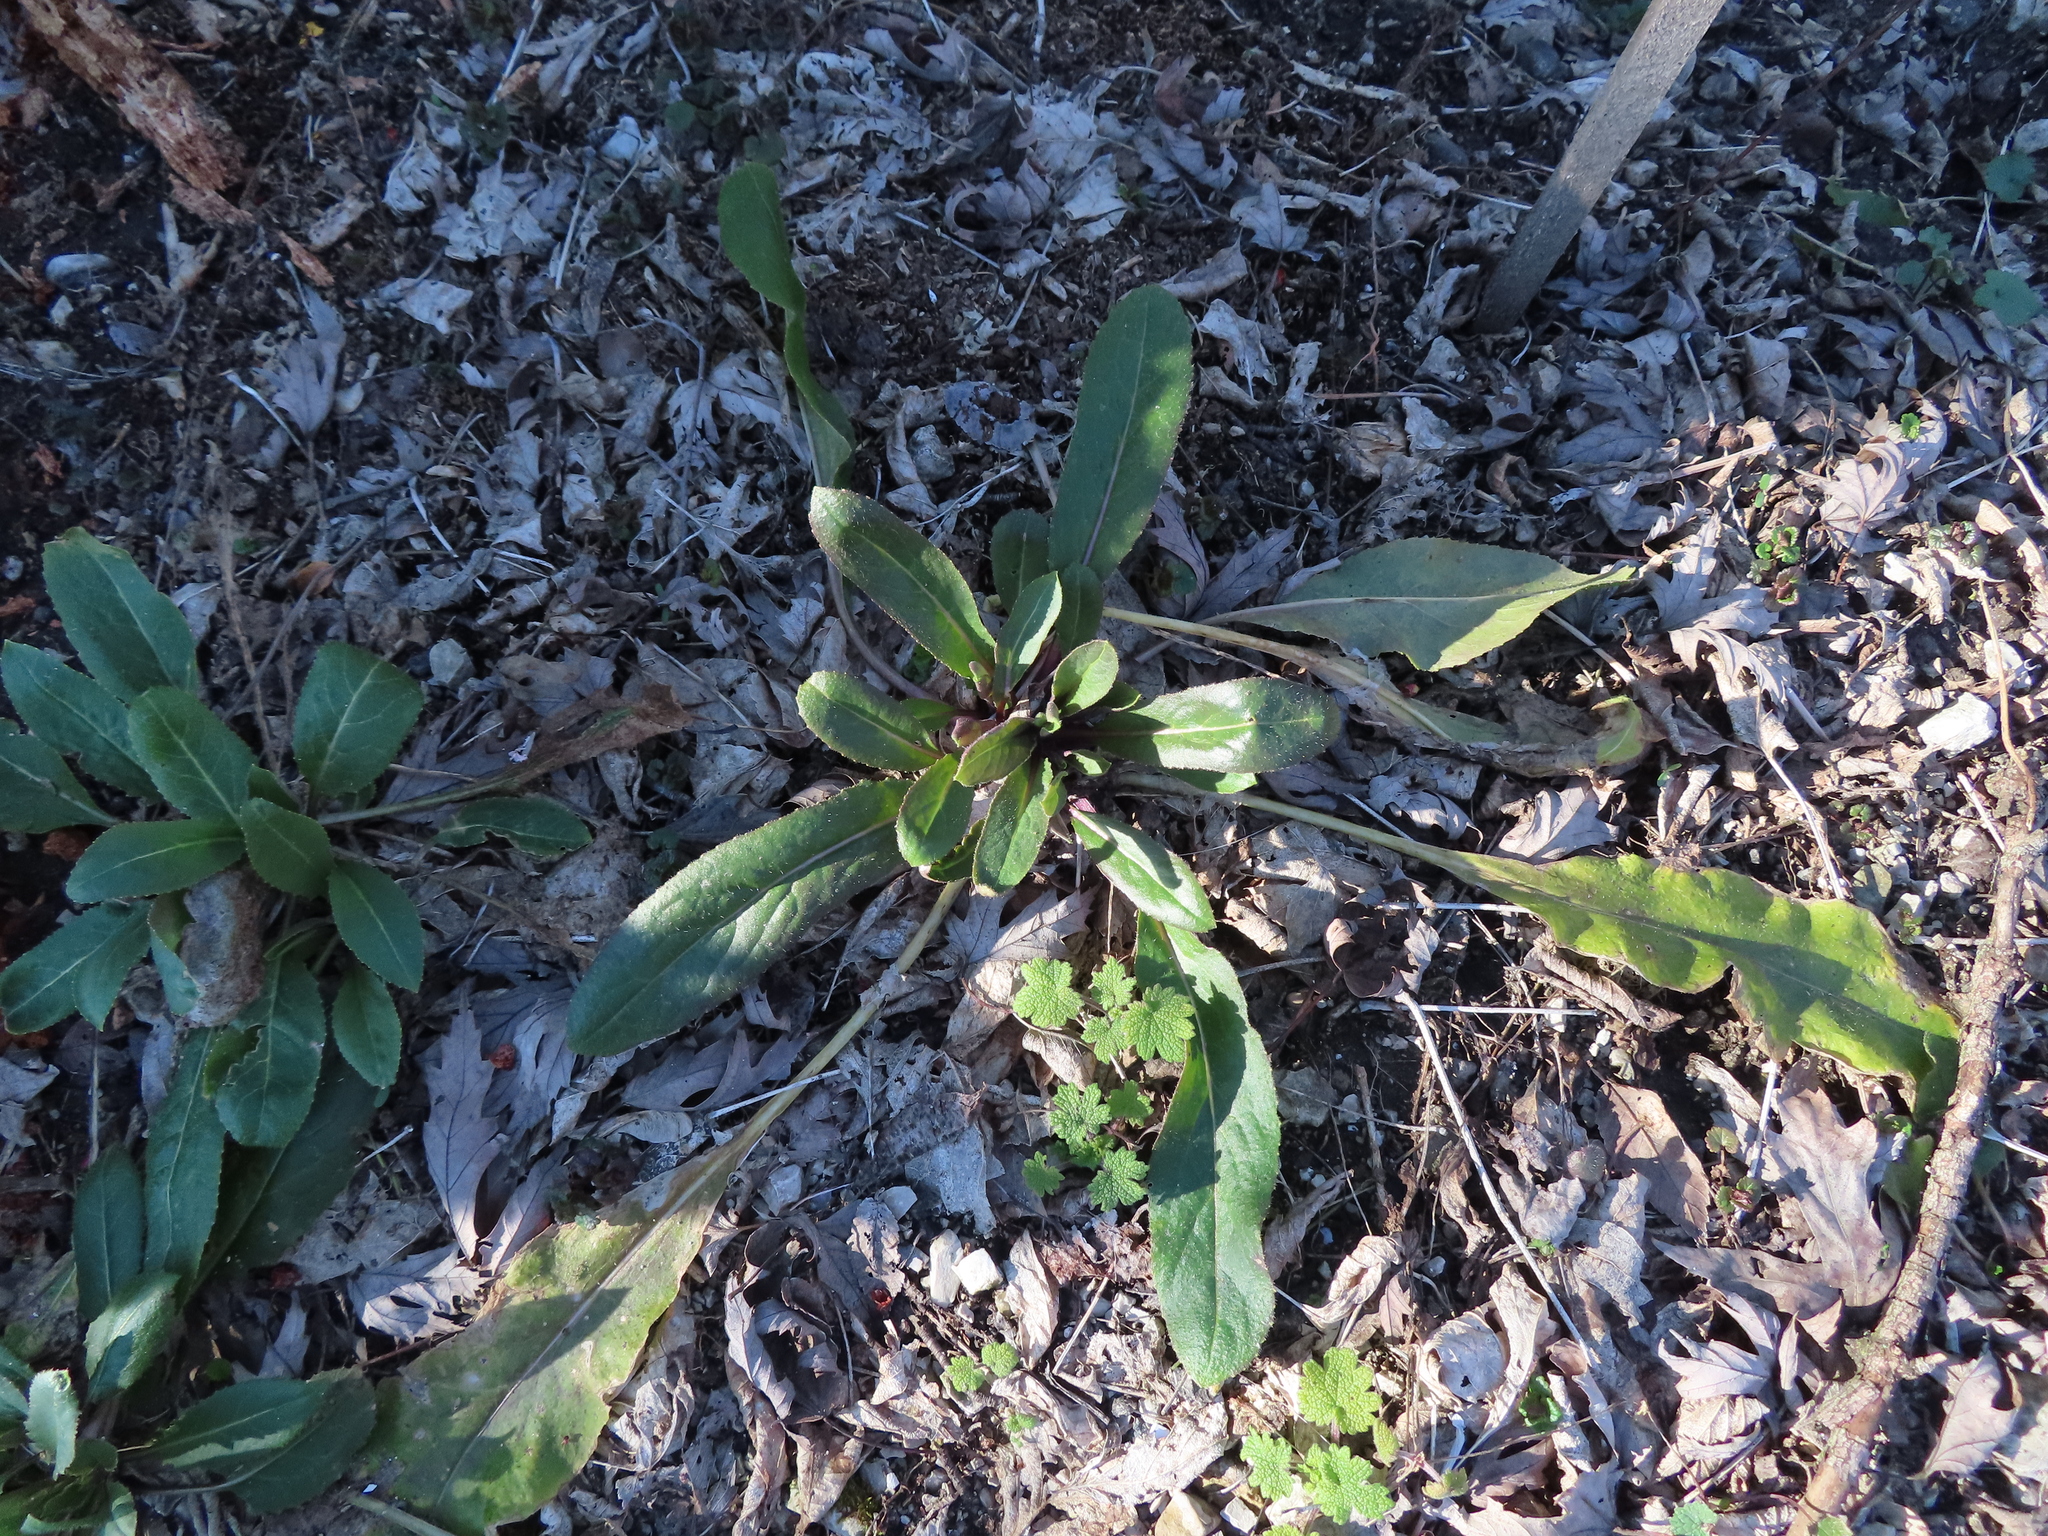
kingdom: Plantae
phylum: Tracheophyta
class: Magnoliopsida
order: Brassicales
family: Brassicaceae
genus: Hesperis
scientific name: Hesperis matronalis
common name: Dame's-violet
